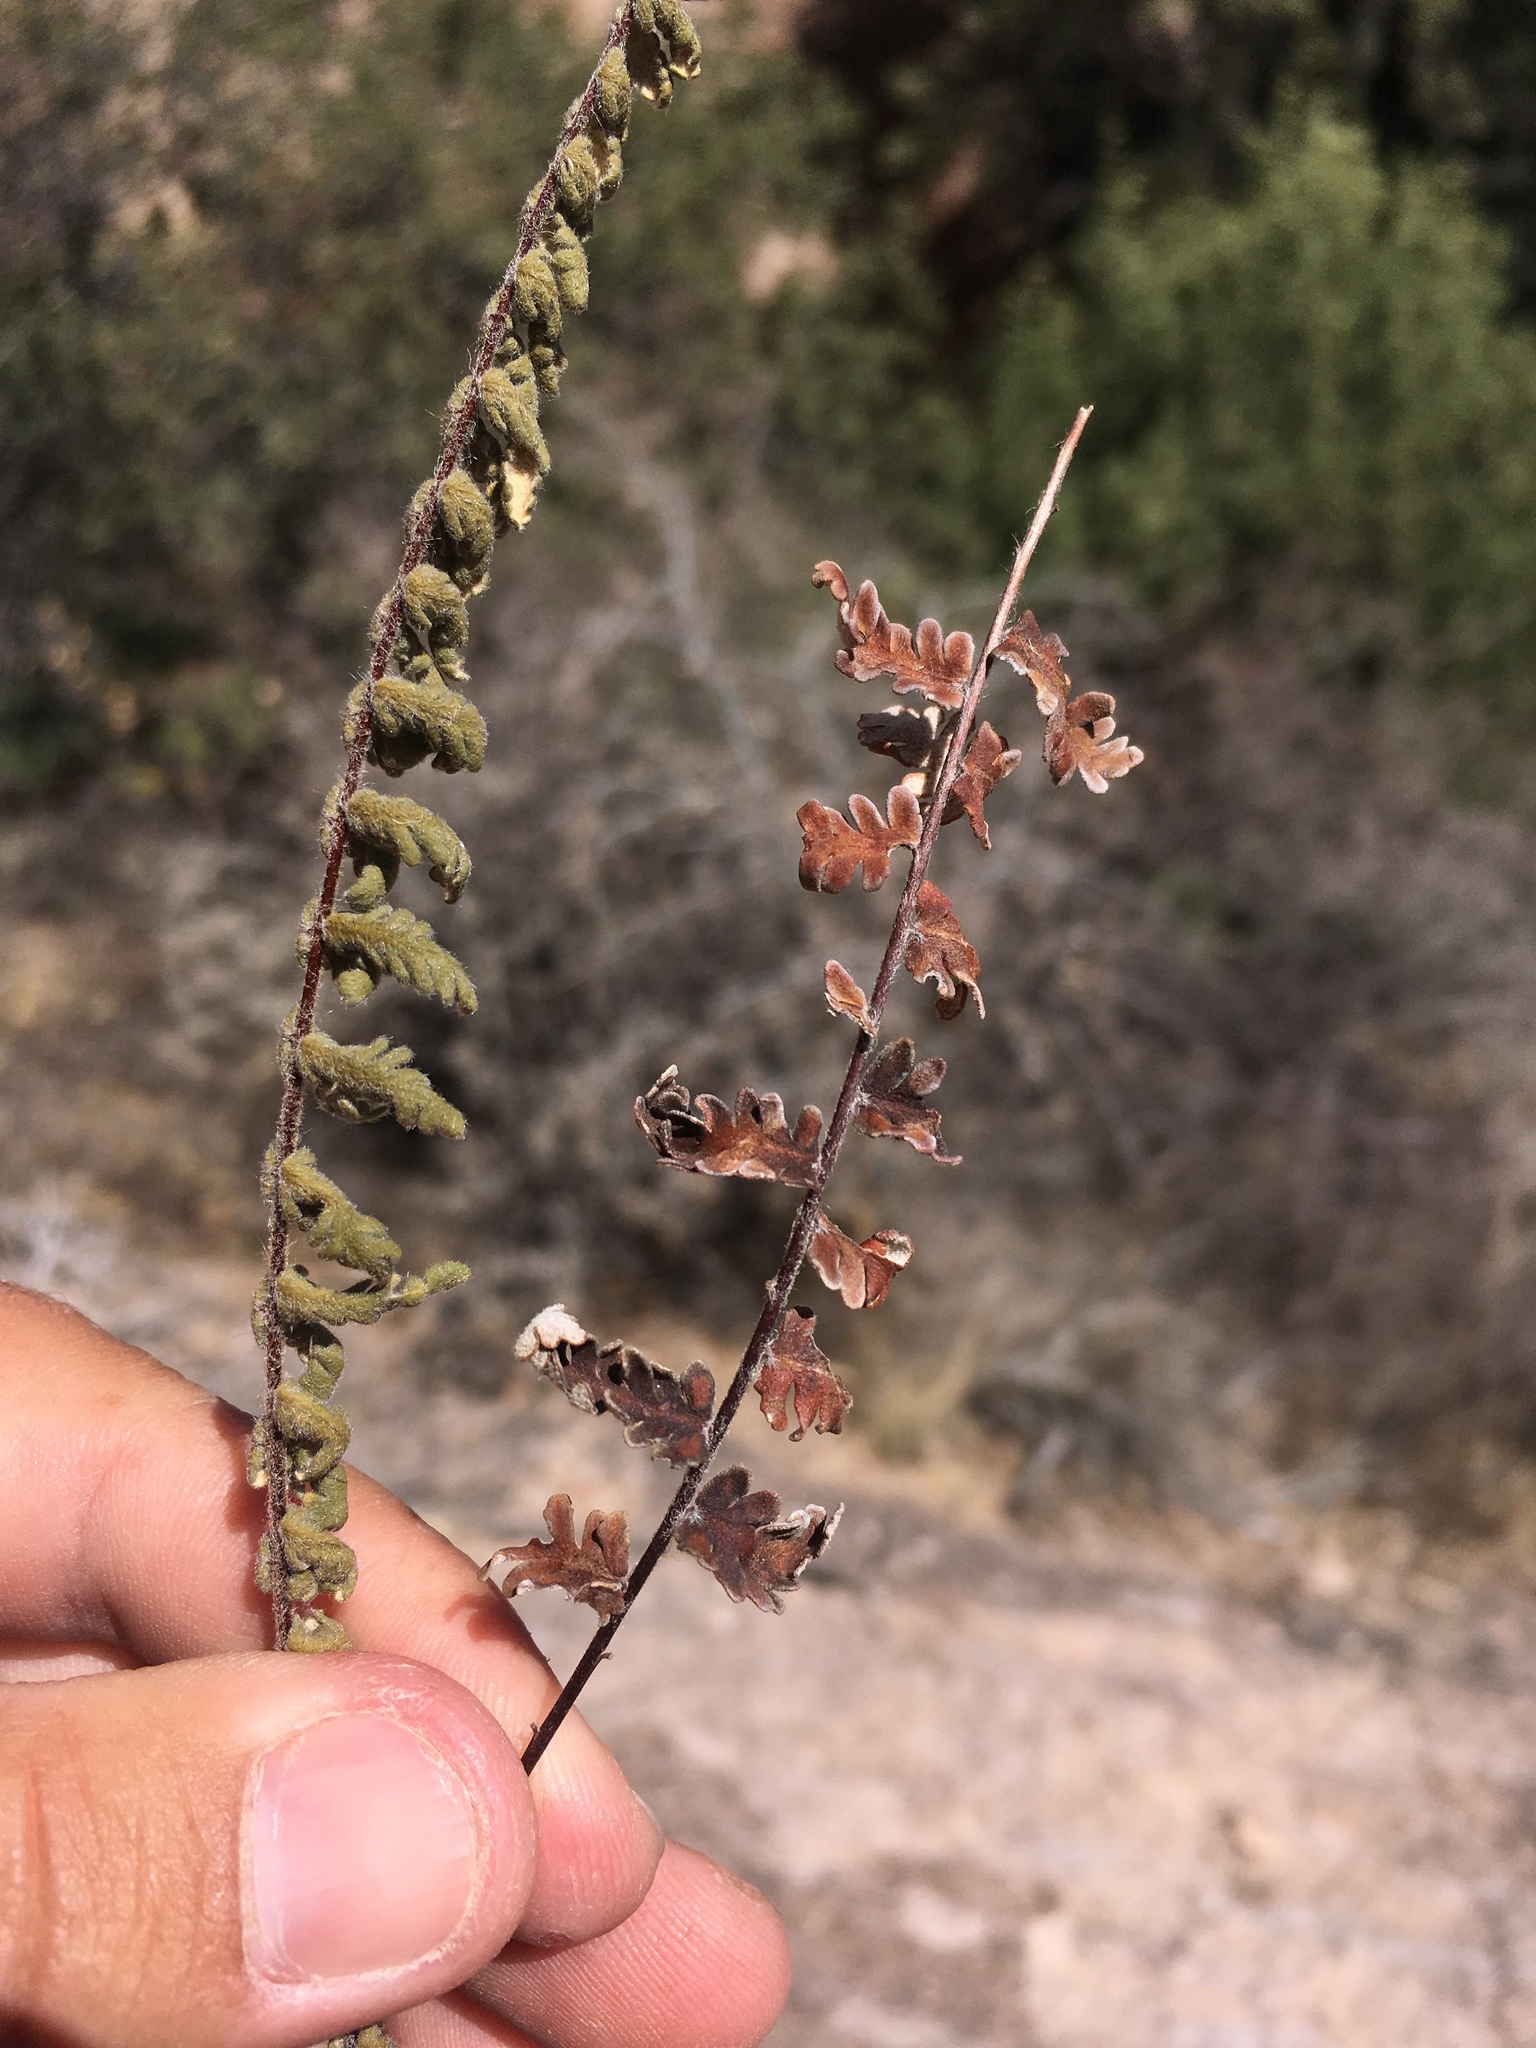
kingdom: Plantae
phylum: Tracheophyta
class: Polypodiopsida
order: Polypodiales
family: Pteridaceae
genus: Myriopteris
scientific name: Myriopteris aurea
